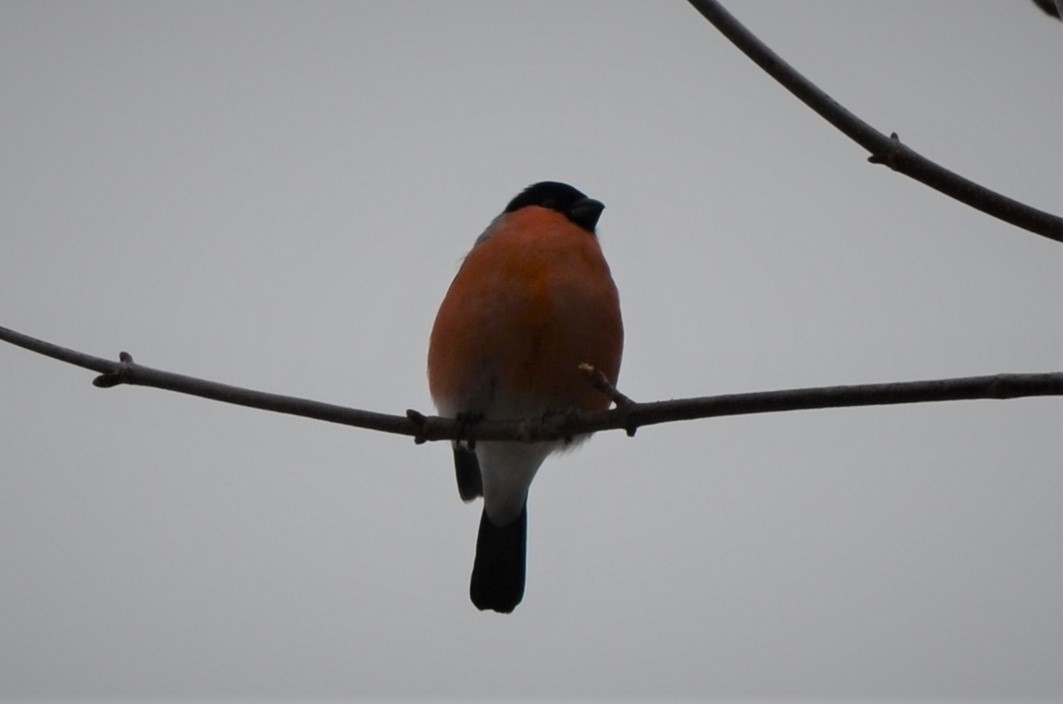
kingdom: Animalia
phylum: Chordata
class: Aves
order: Passeriformes
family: Fringillidae
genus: Pyrrhula
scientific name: Pyrrhula pyrrhula
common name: Eurasian bullfinch
